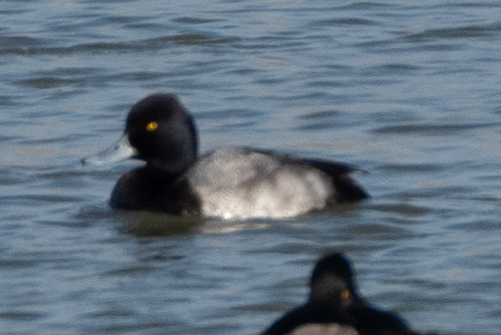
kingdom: Animalia
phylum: Chordata
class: Aves
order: Anseriformes
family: Anatidae
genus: Aythya
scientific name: Aythya affinis
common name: Lesser scaup
